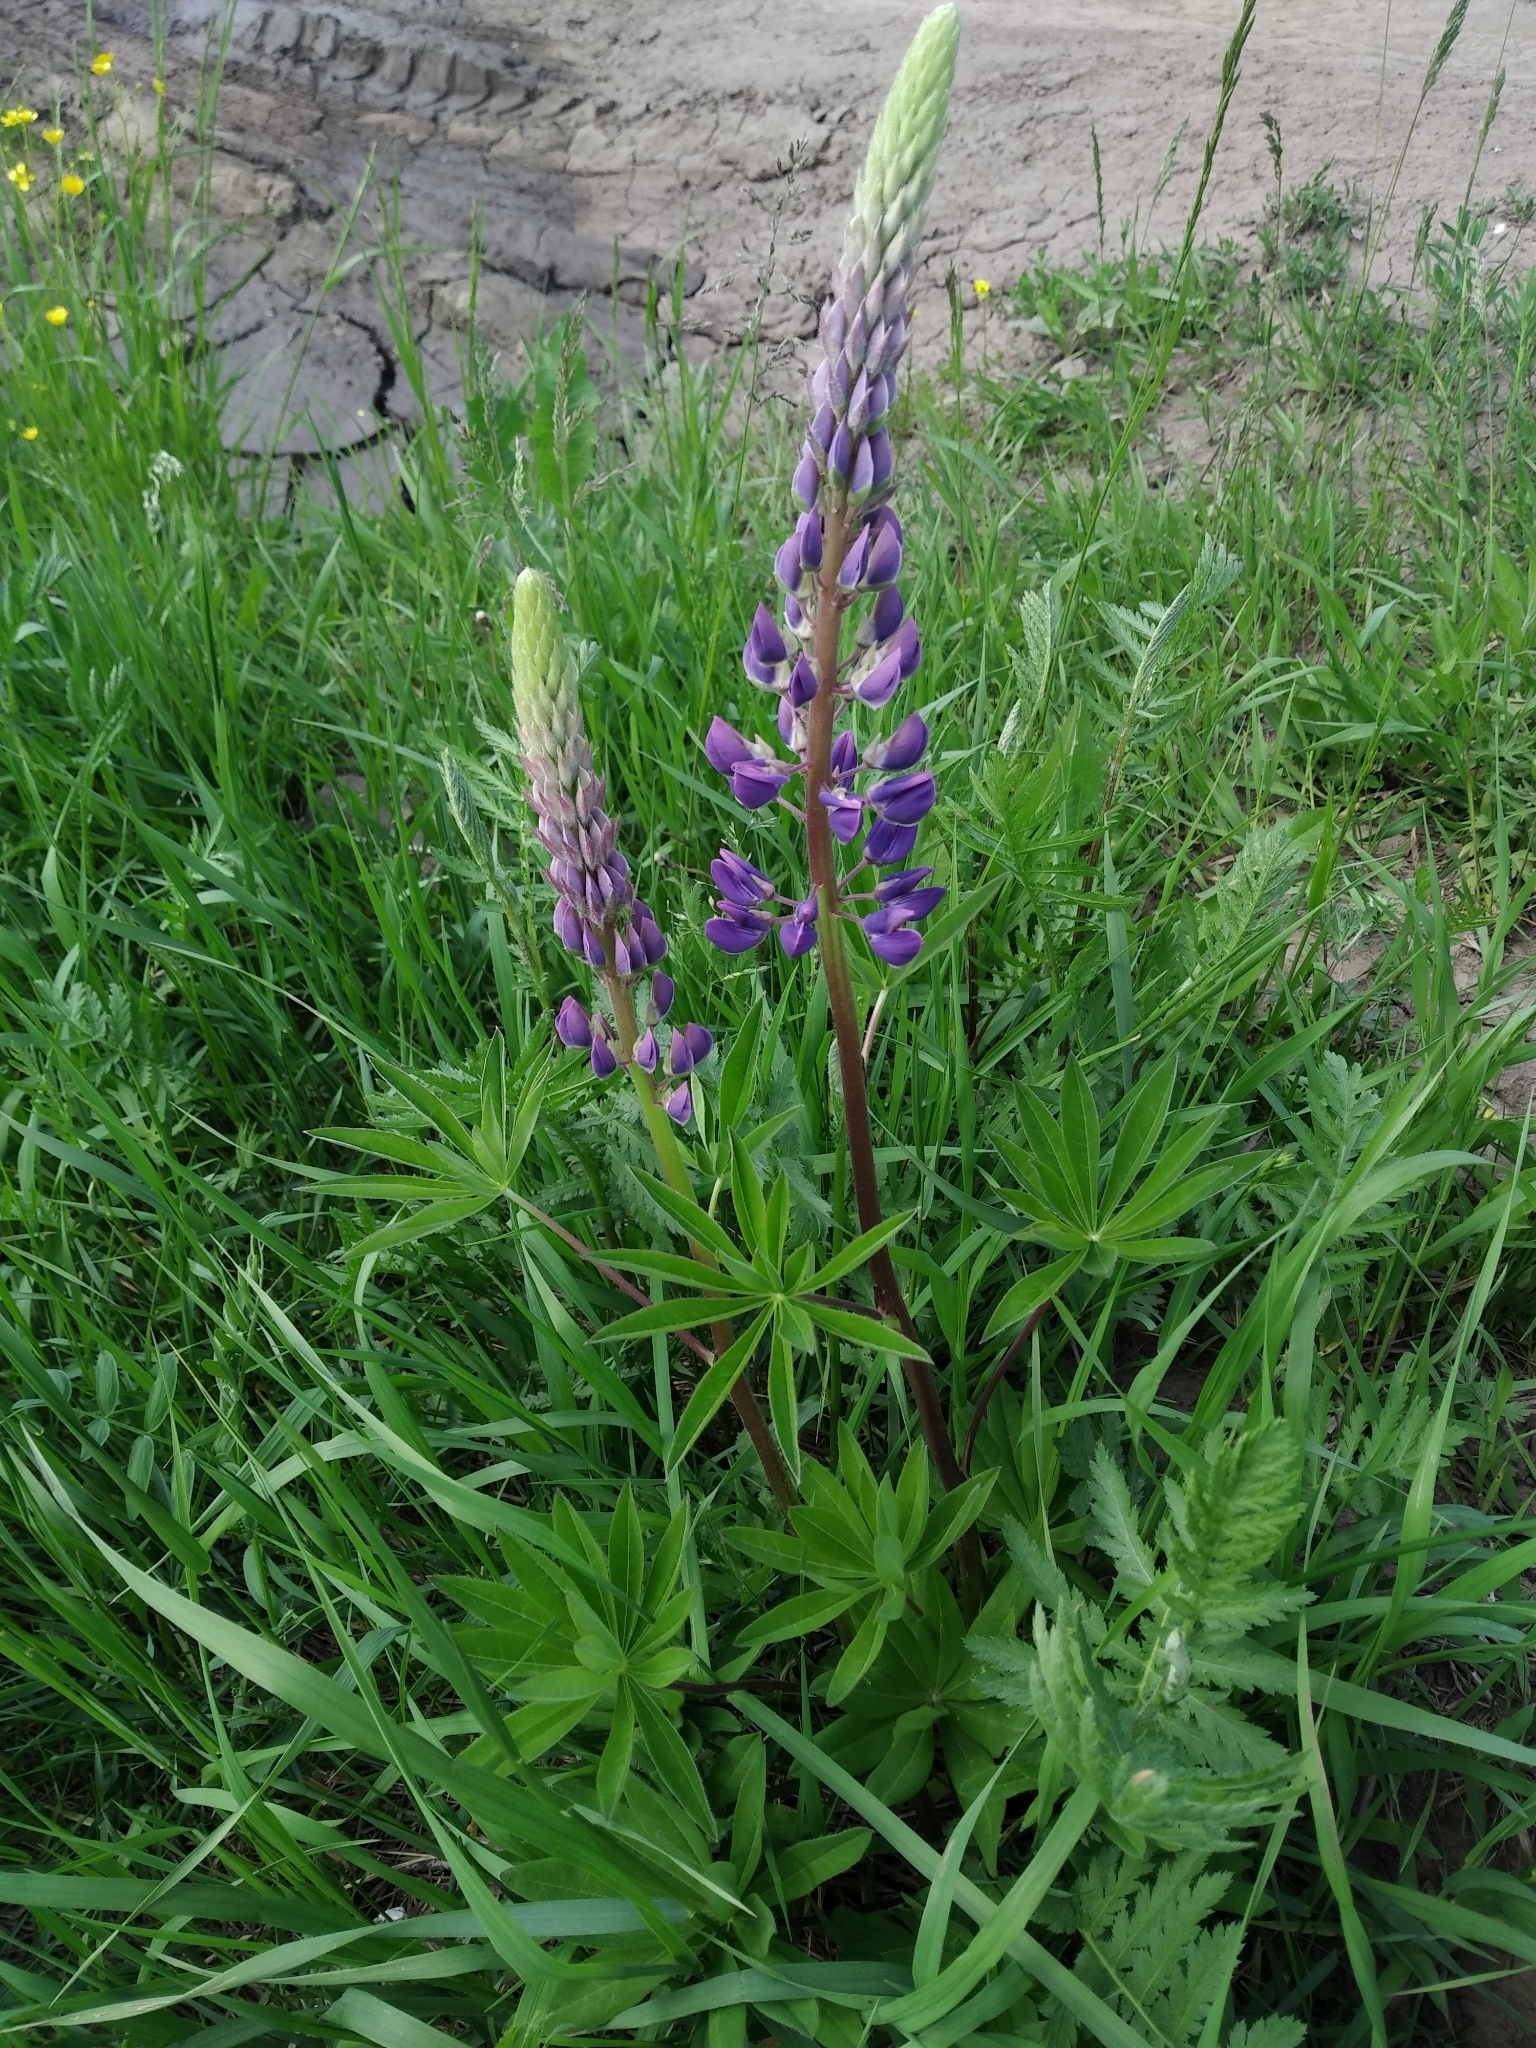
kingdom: Plantae
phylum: Tracheophyta
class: Magnoliopsida
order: Fabales
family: Fabaceae
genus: Lupinus
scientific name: Lupinus polyphyllus
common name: Garden lupin
